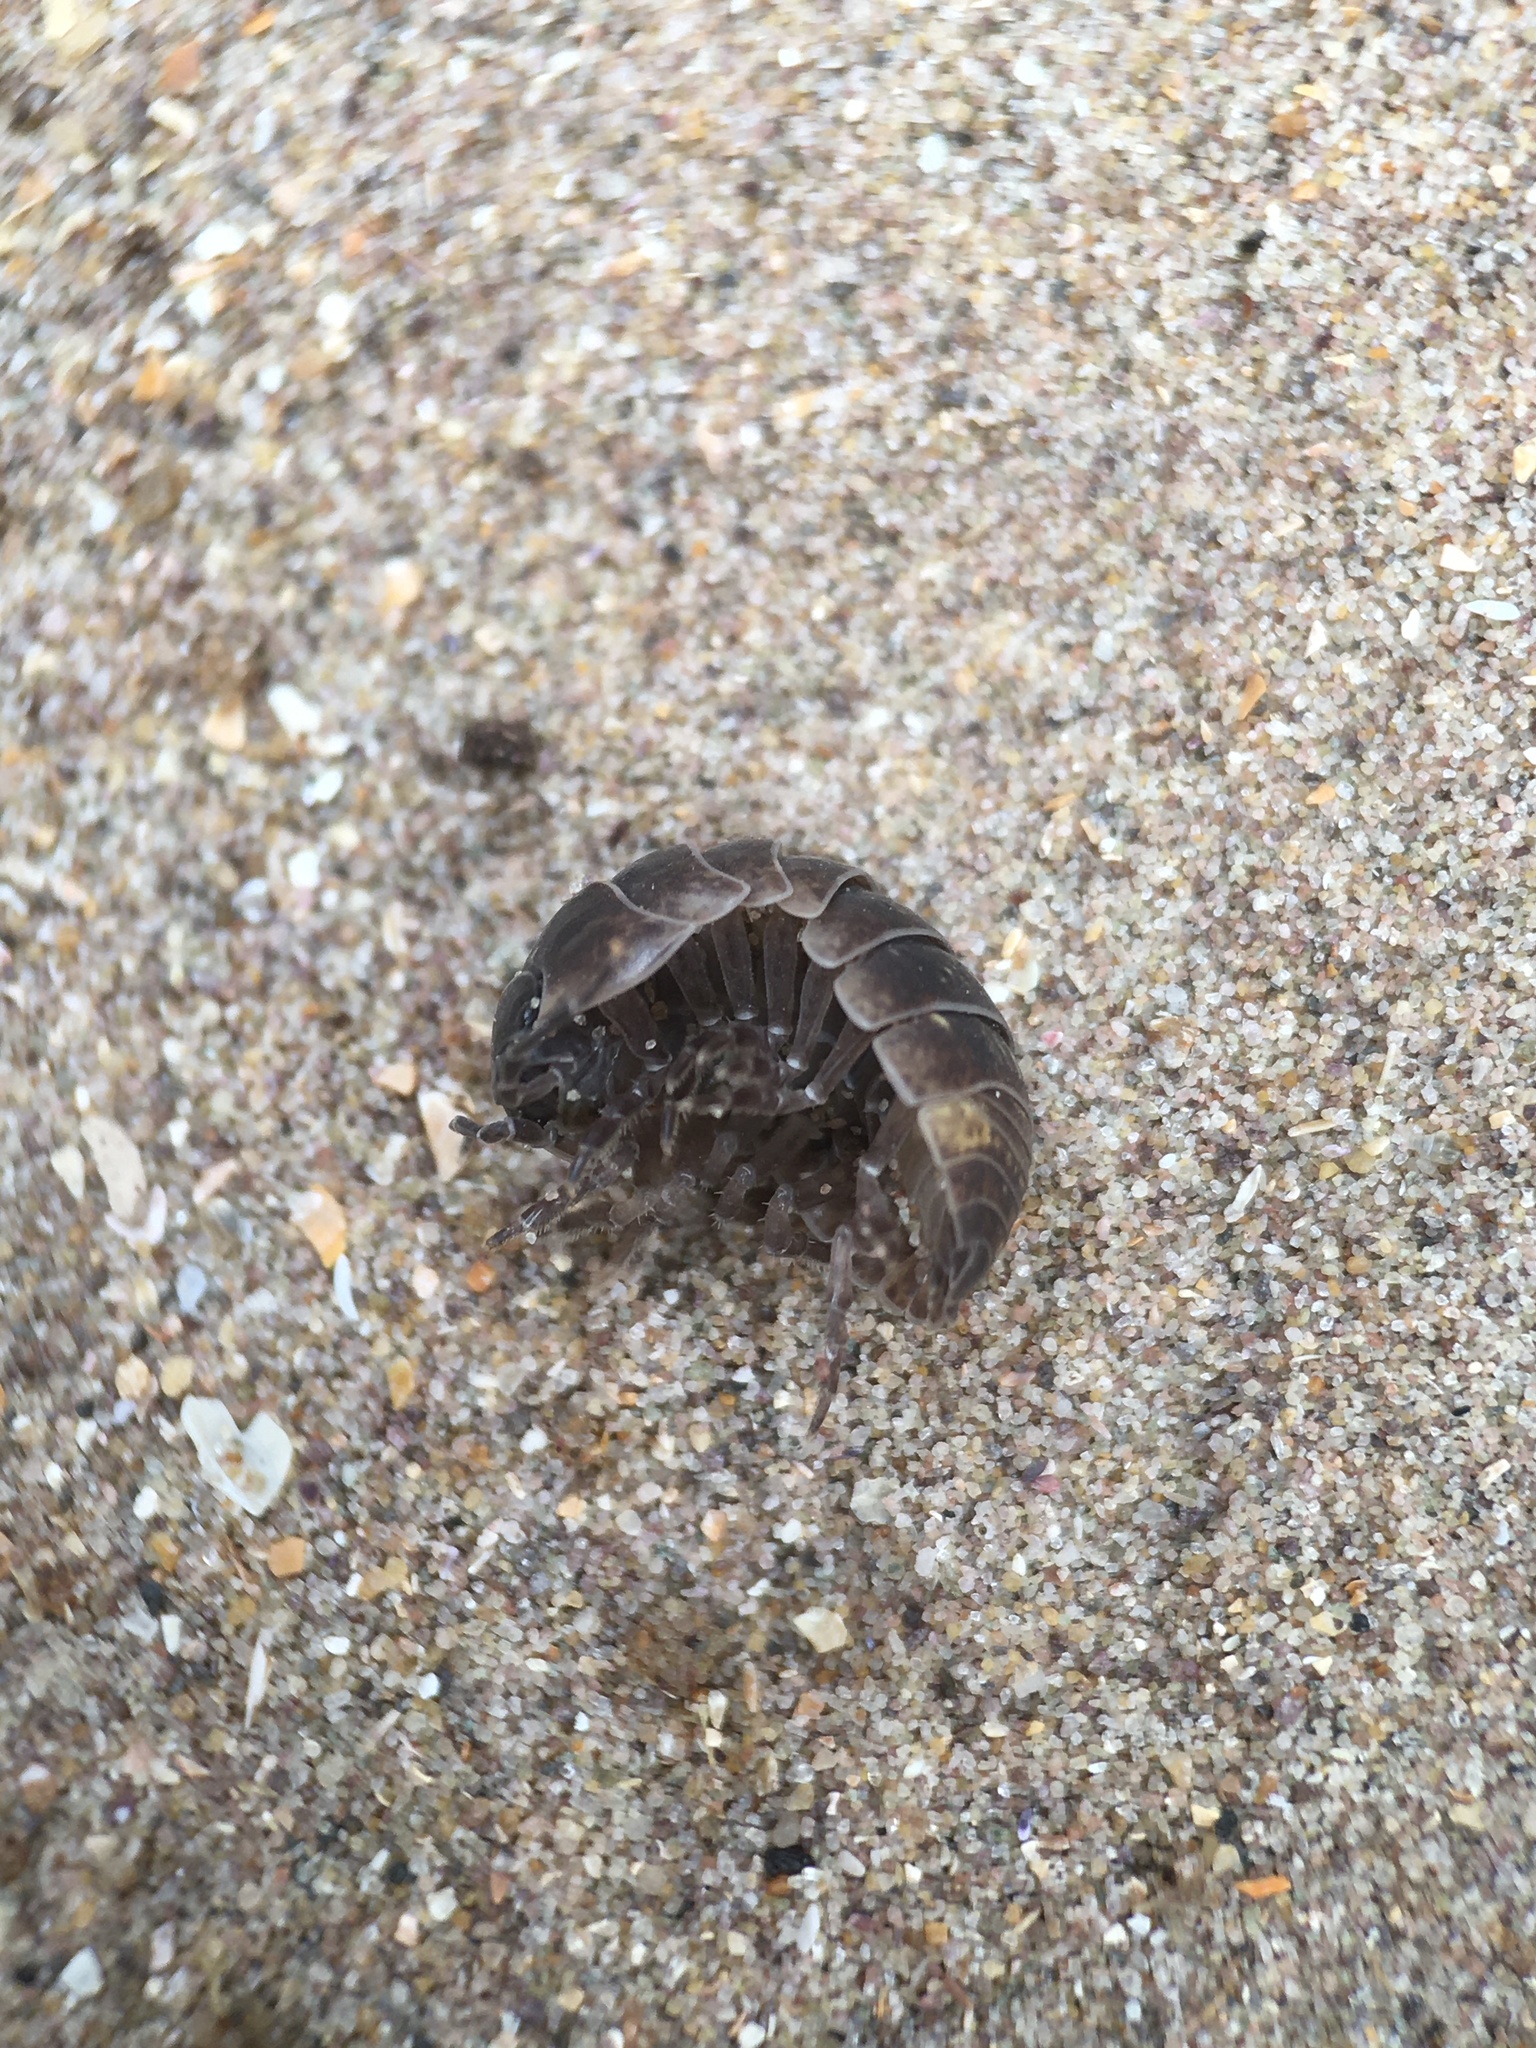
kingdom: Animalia
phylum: Arthropoda
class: Malacostraca
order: Isopoda
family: Armadillidiidae
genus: Armadillidium
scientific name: Armadillidium vulgare
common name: Common pill woodlouse
